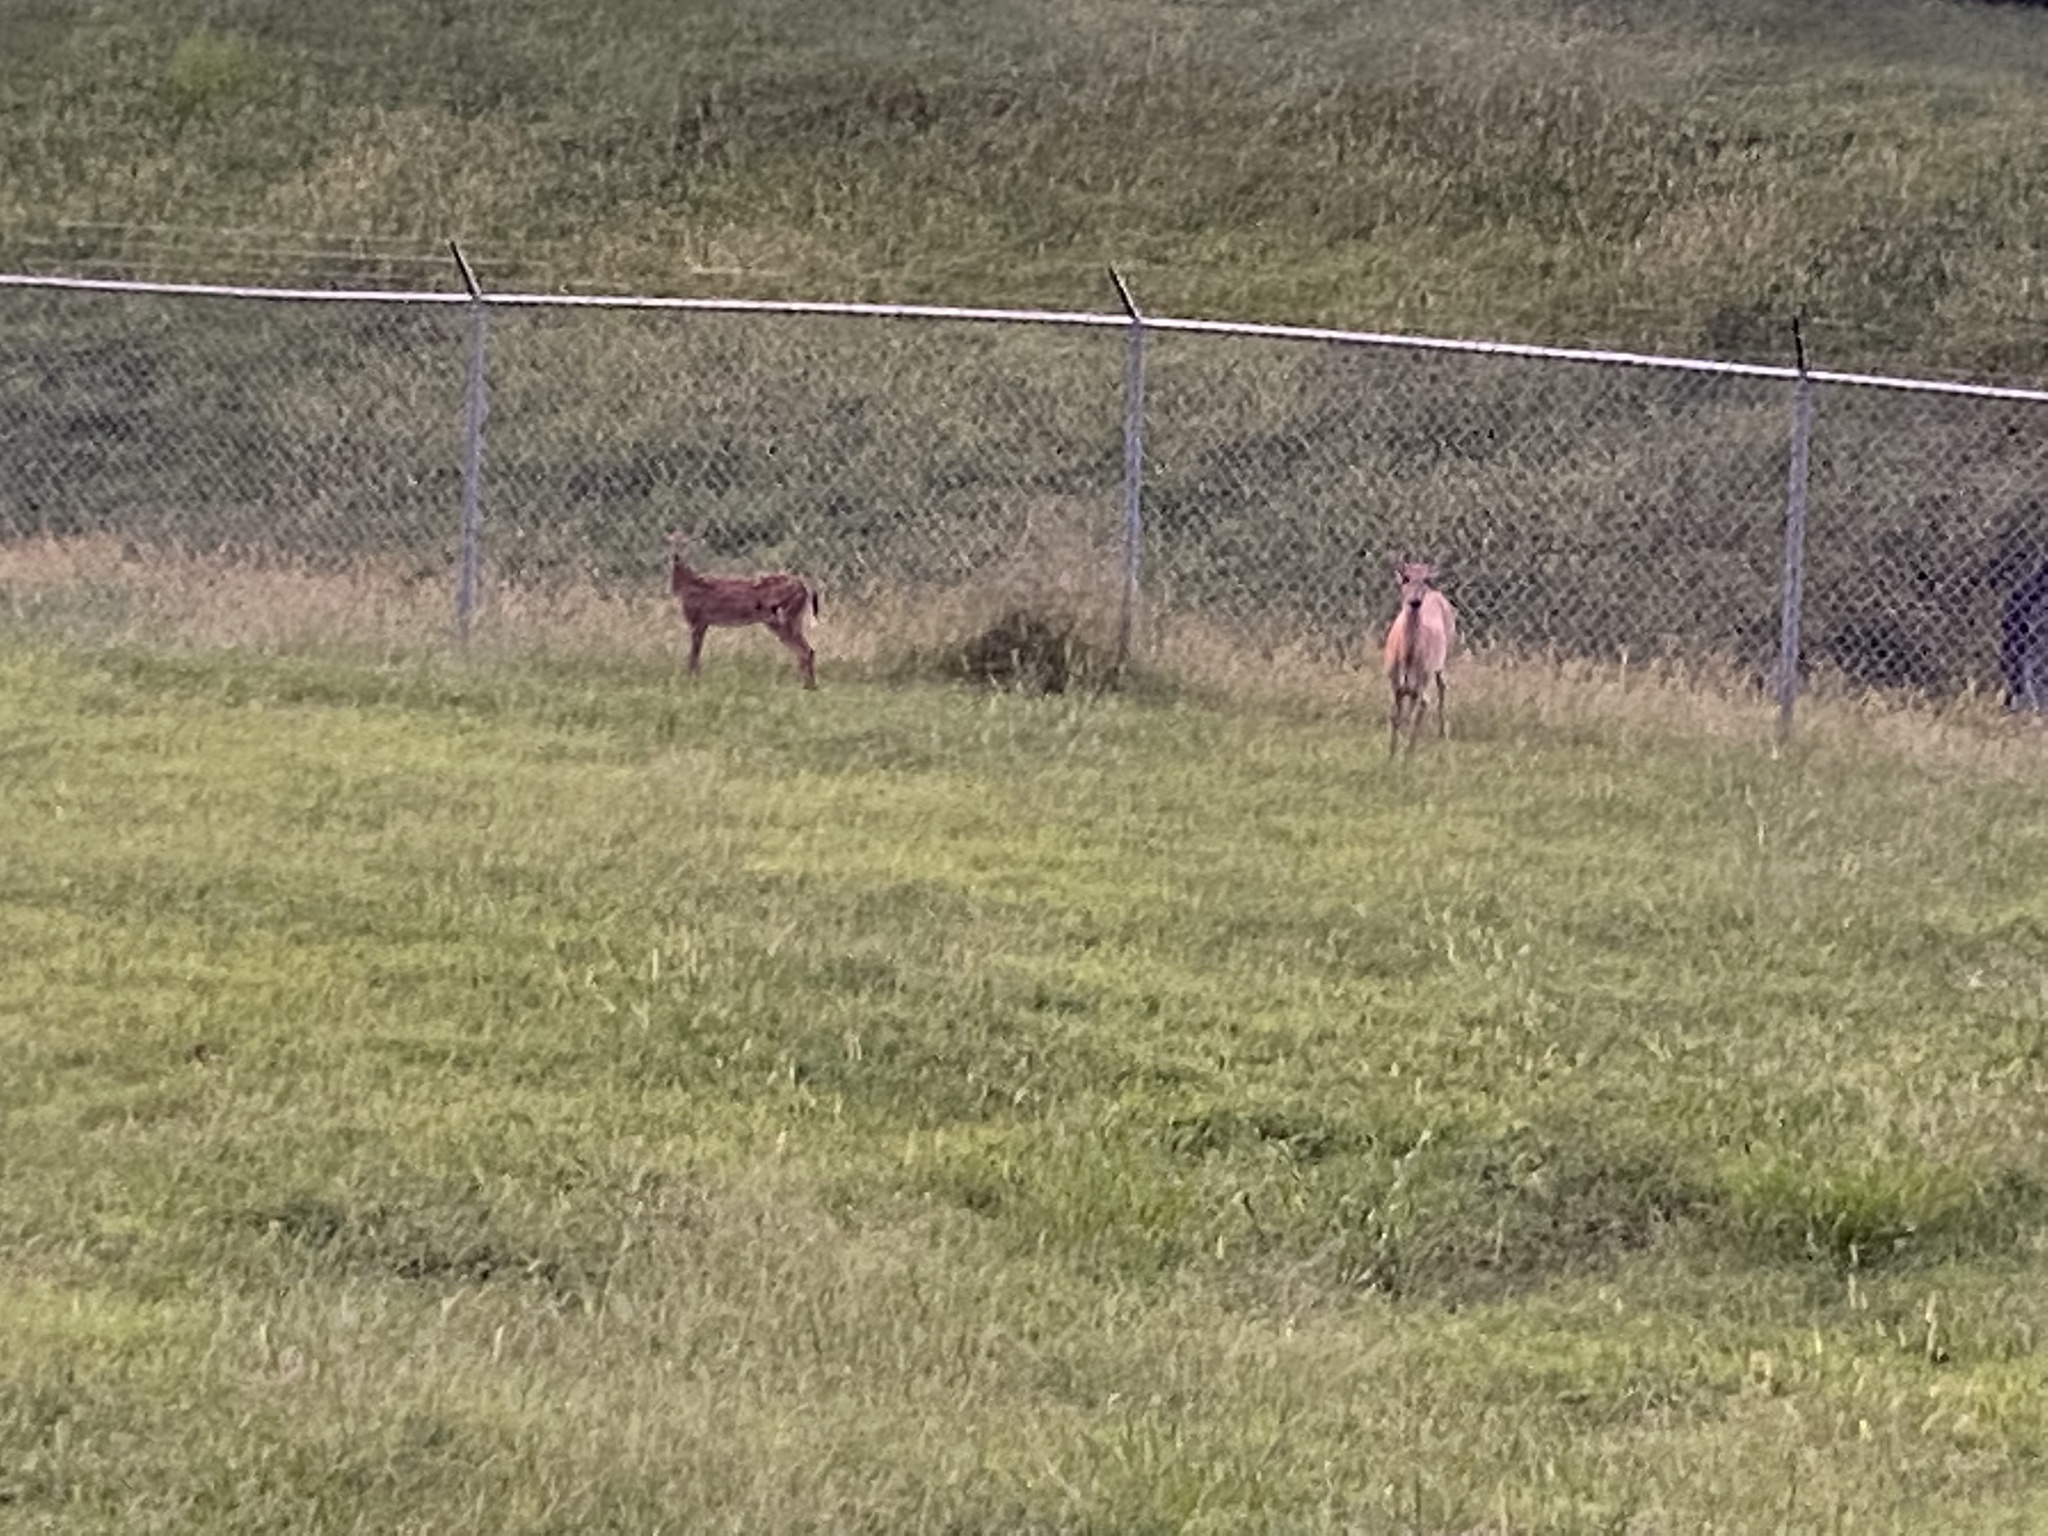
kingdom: Animalia
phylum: Chordata
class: Mammalia
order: Artiodactyla
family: Cervidae
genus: Odocoileus
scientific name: Odocoileus virginianus
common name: White-tailed deer
